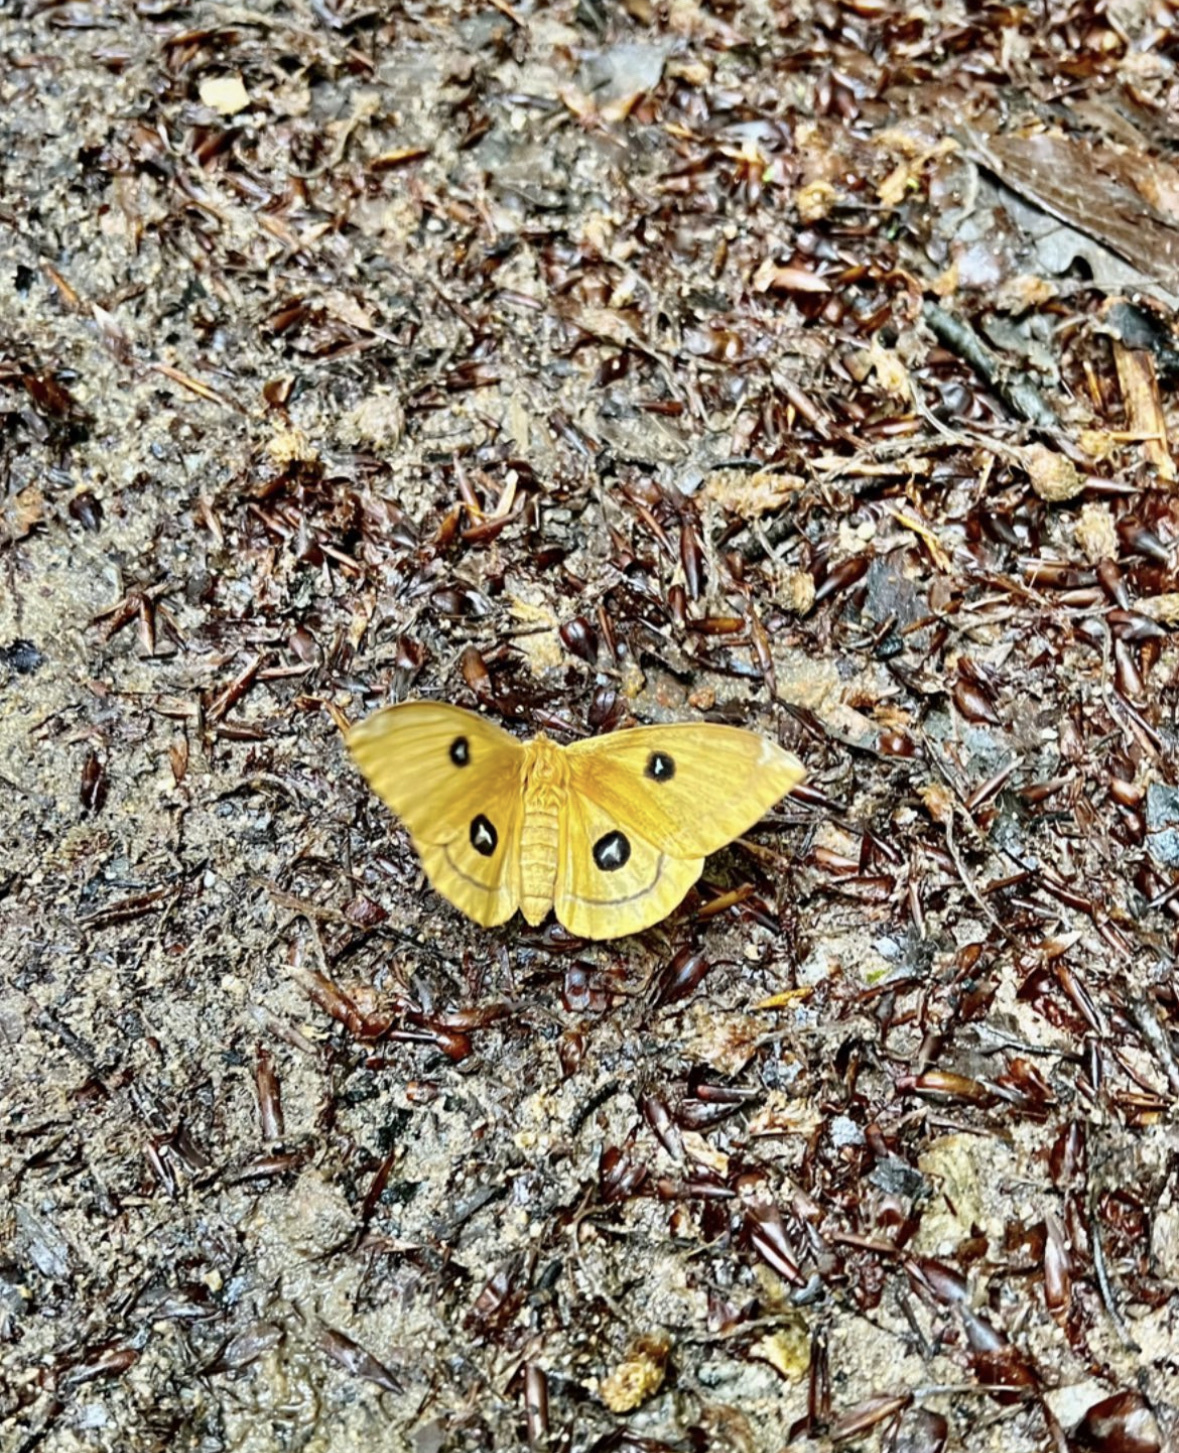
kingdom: Animalia
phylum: Arthropoda
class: Insecta
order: Lepidoptera
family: Saturniidae
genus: Aglia
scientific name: Aglia tau
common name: Tau emperor
